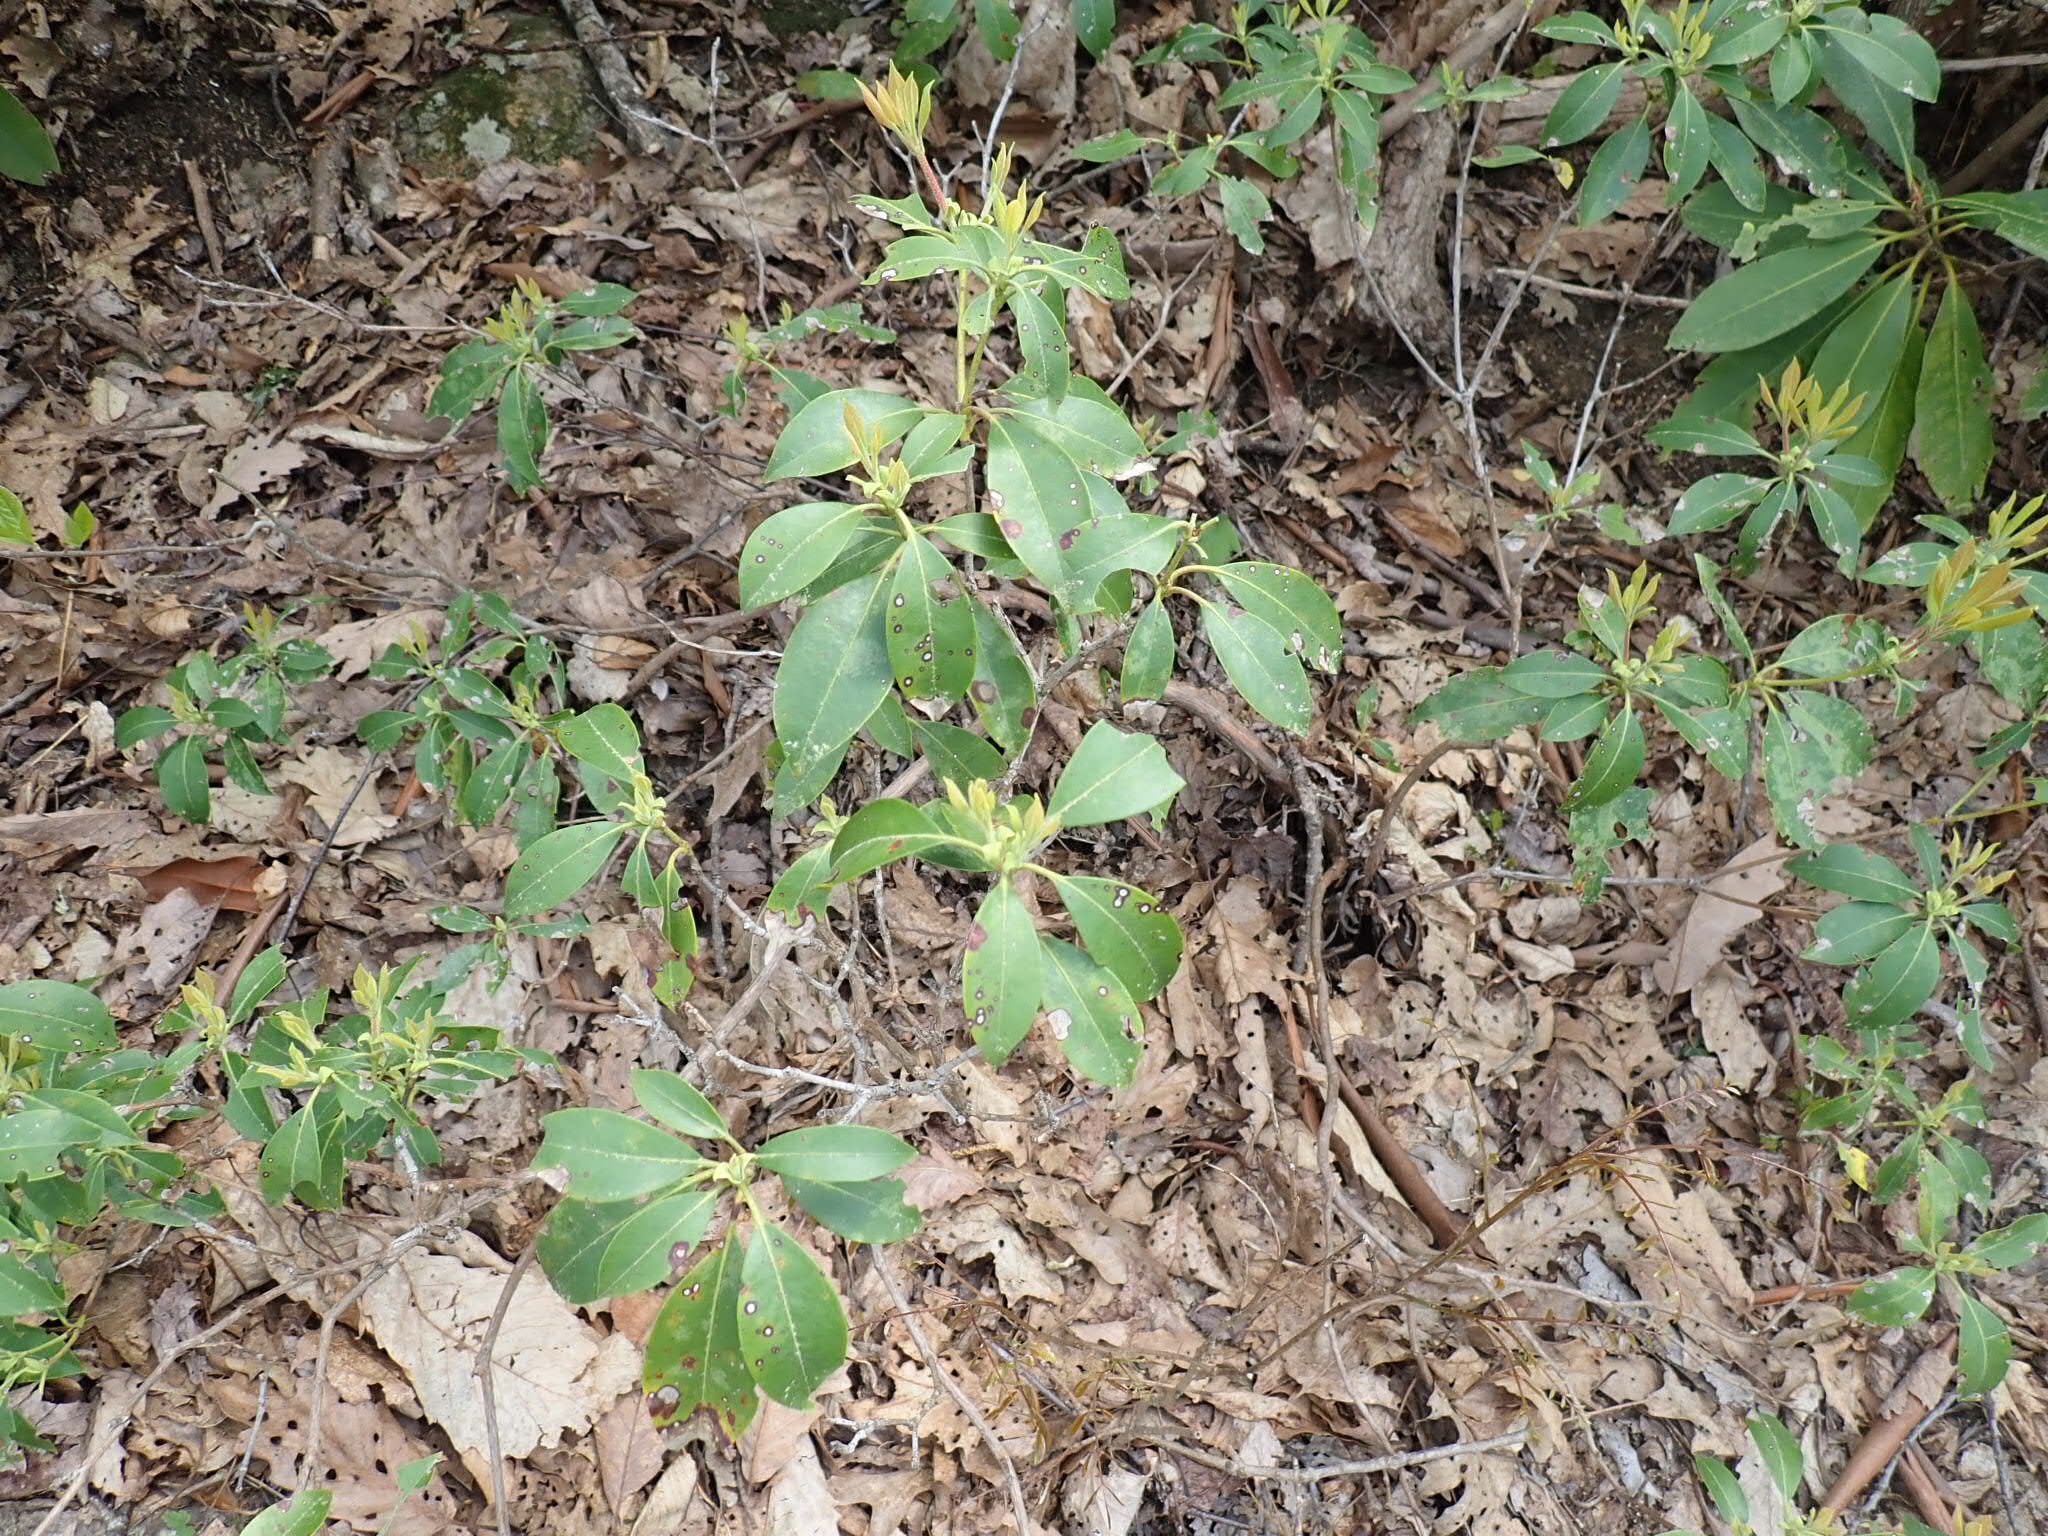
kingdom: Plantae
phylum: Tracheophyta
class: Magnoliopsida
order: Ericales
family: Ericaceae
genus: Kalmia
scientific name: Kalmia latifolia
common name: Mountain-laurel
